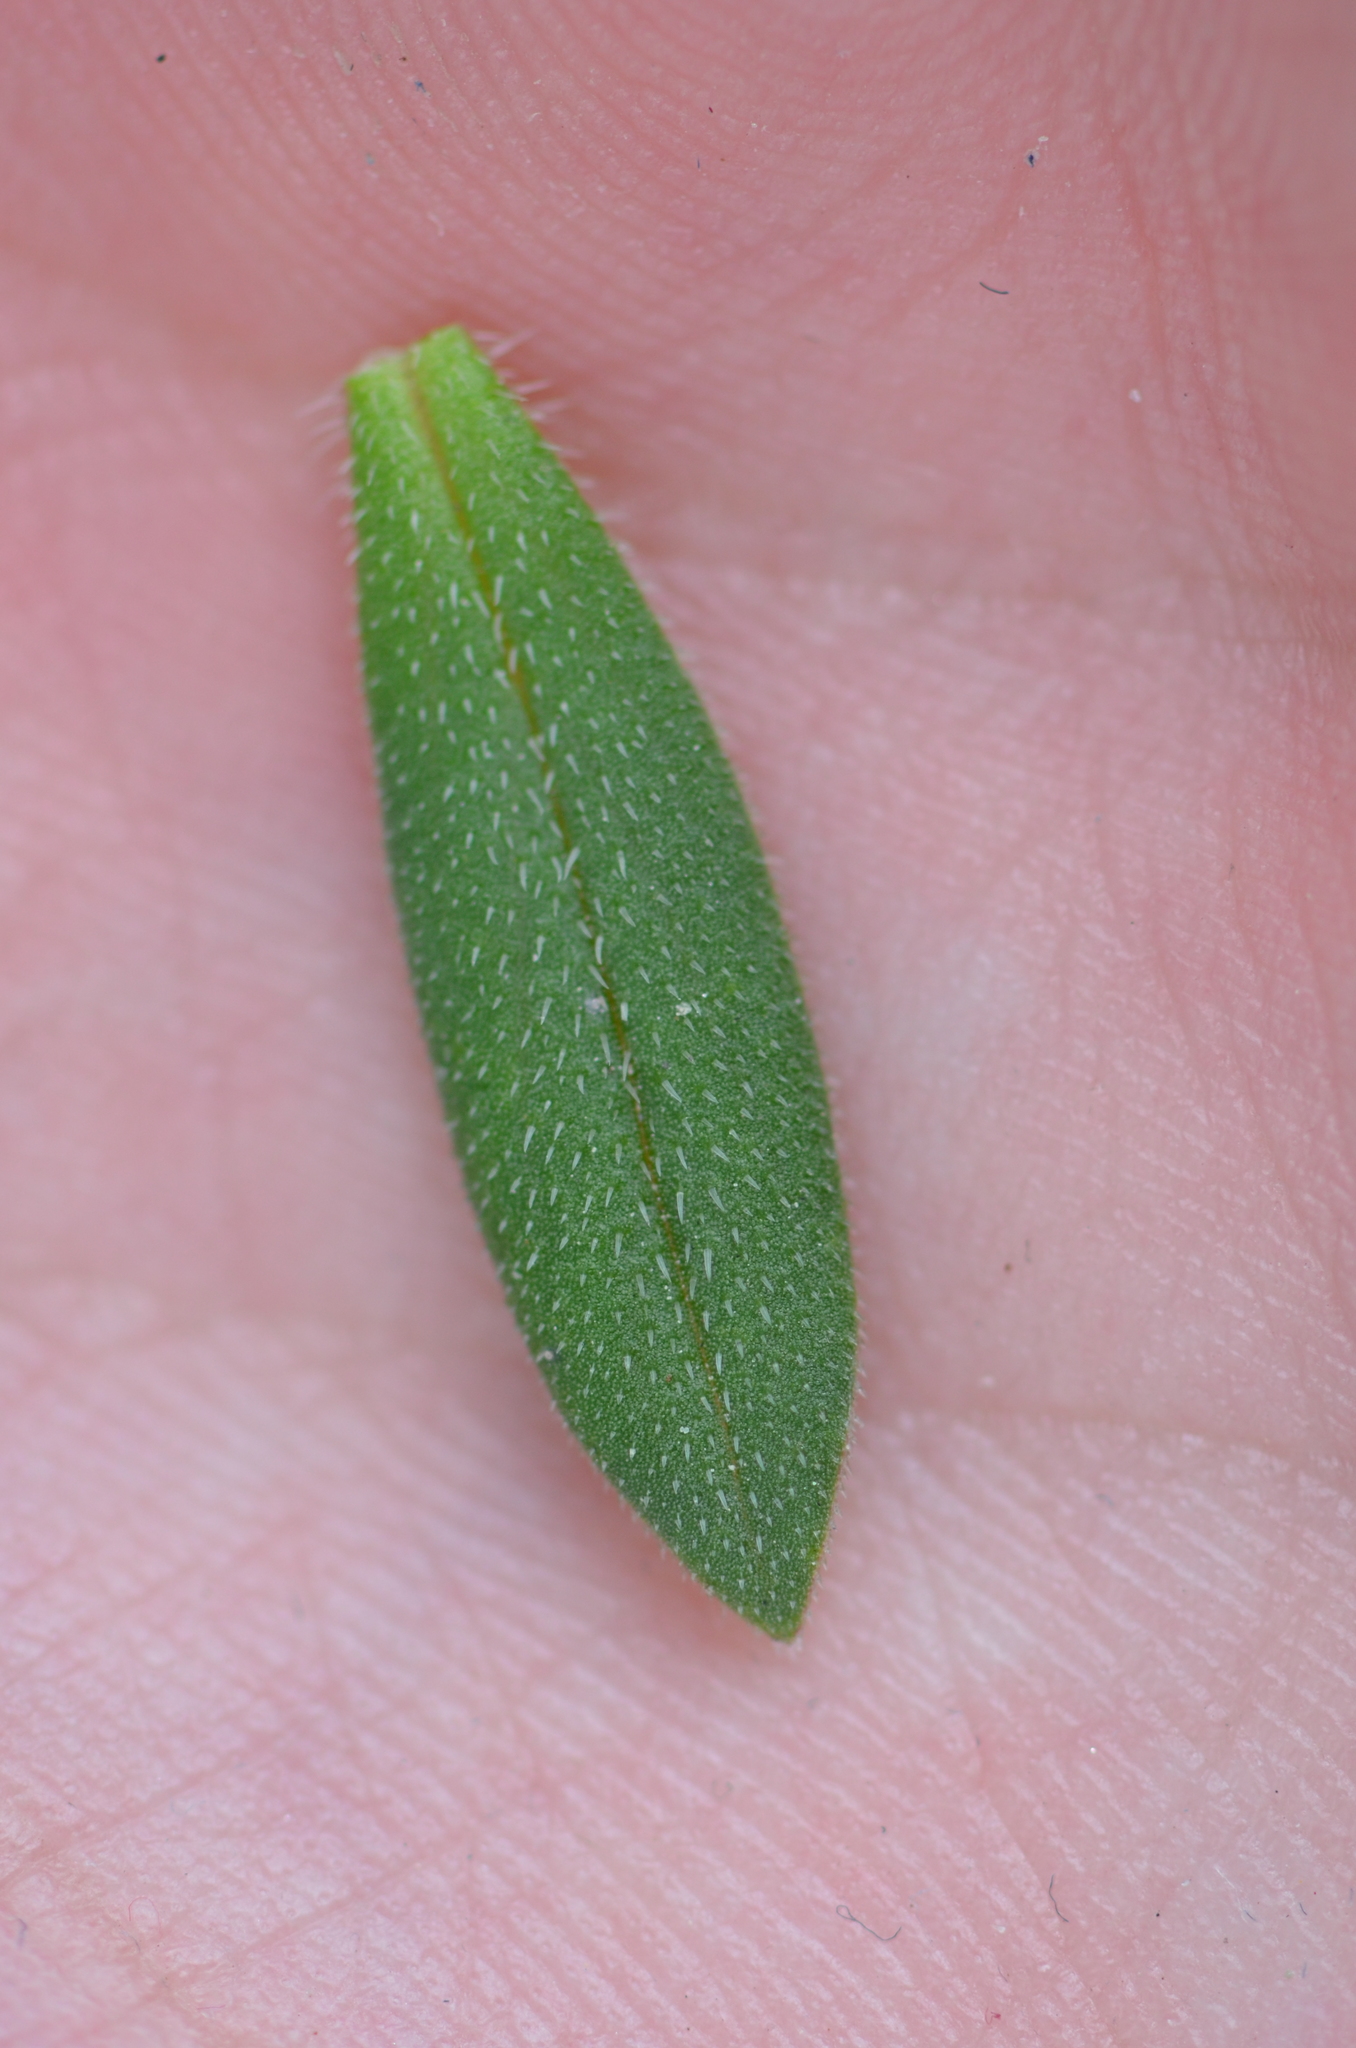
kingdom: Plantae
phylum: Tracheophyta
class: Magnoliopsida
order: Gentianales
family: Rubiaceae
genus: Richardia
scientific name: Richardia grandiflora
